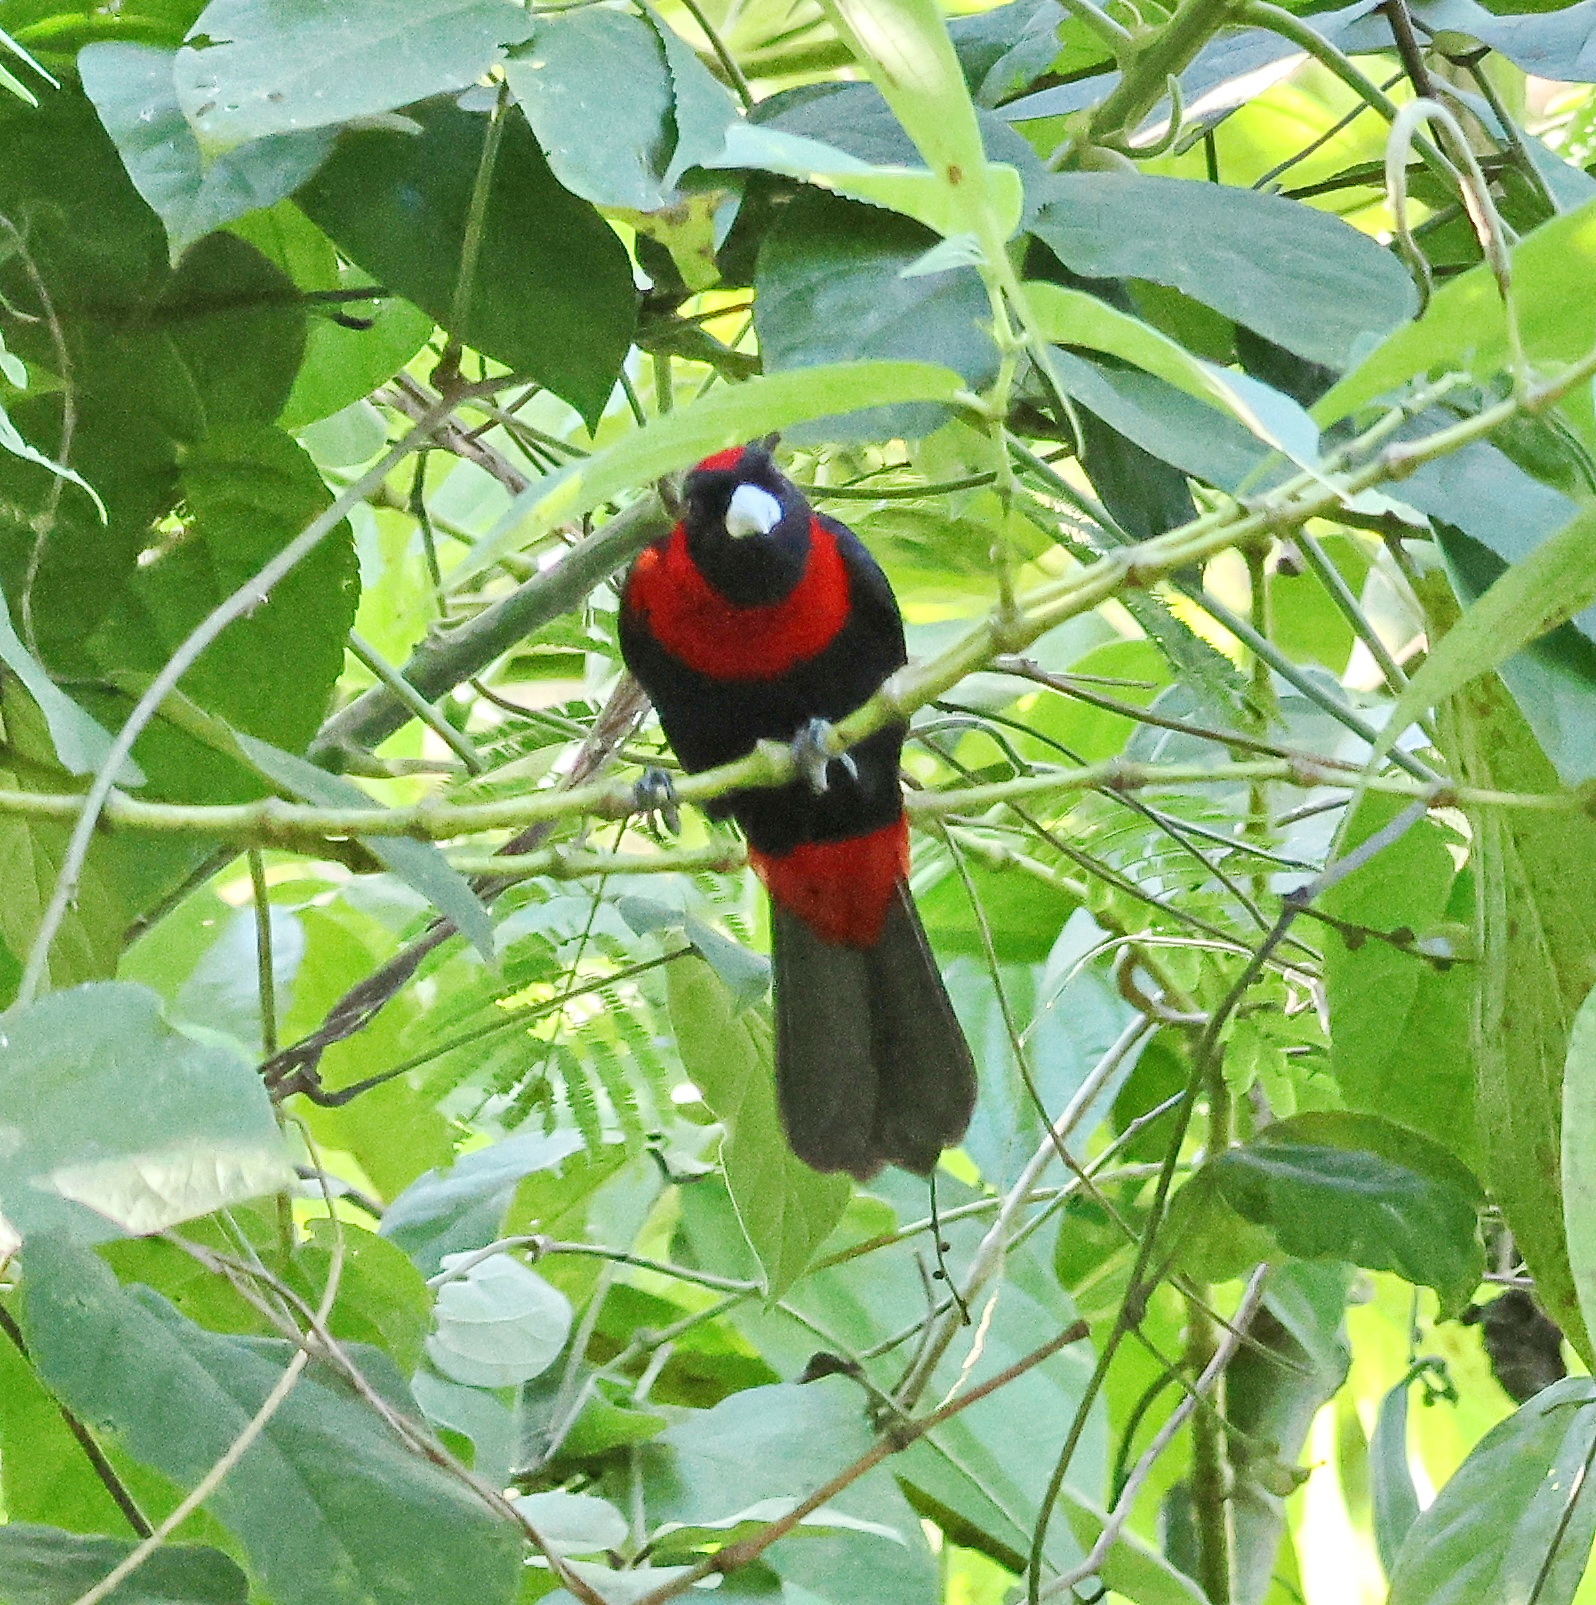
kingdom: Animalia
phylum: Chordata
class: Aves
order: Passeriformes
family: Thraupidae
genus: Ramphocelus
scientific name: Ramphocelus sanguinolentus
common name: Crimson-collared tanager
